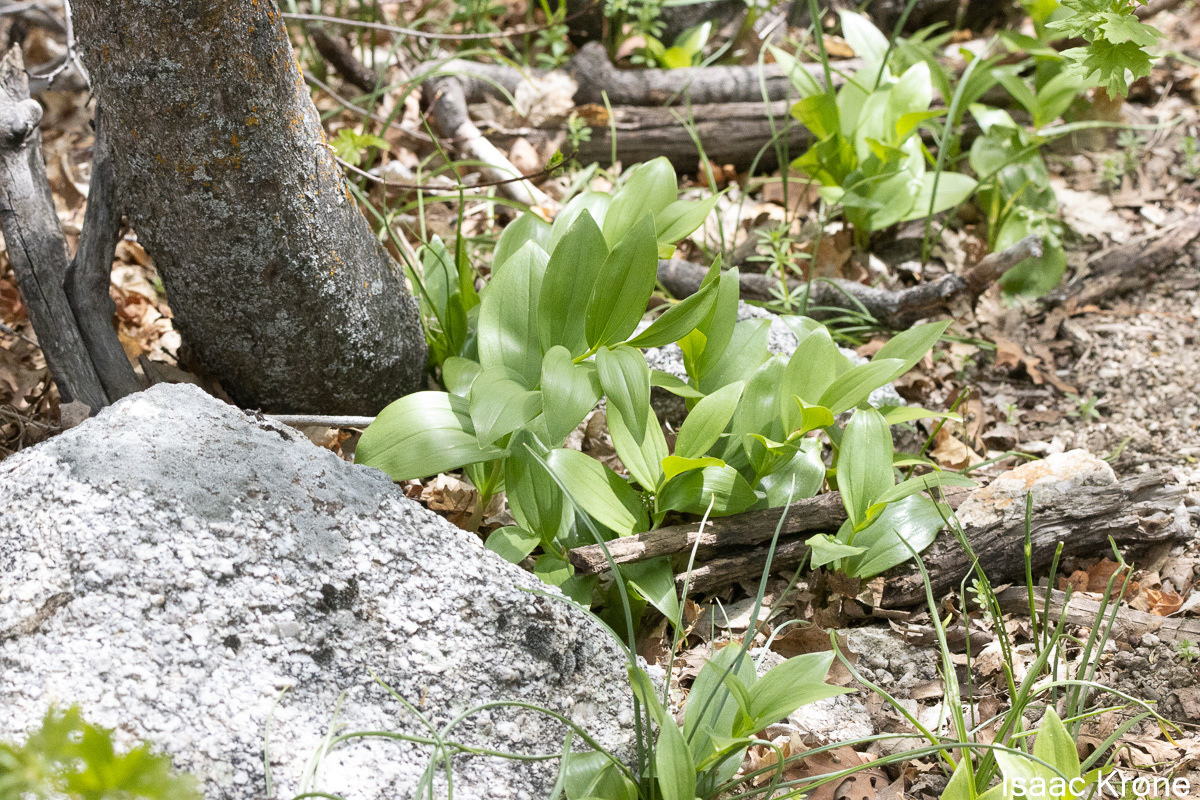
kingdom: Plantae
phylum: Tracheophyta
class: Liliopsida
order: Asparagales
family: Asparagaceae
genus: Maianthemum
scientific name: Maianthemum racemosum
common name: False spikenard
